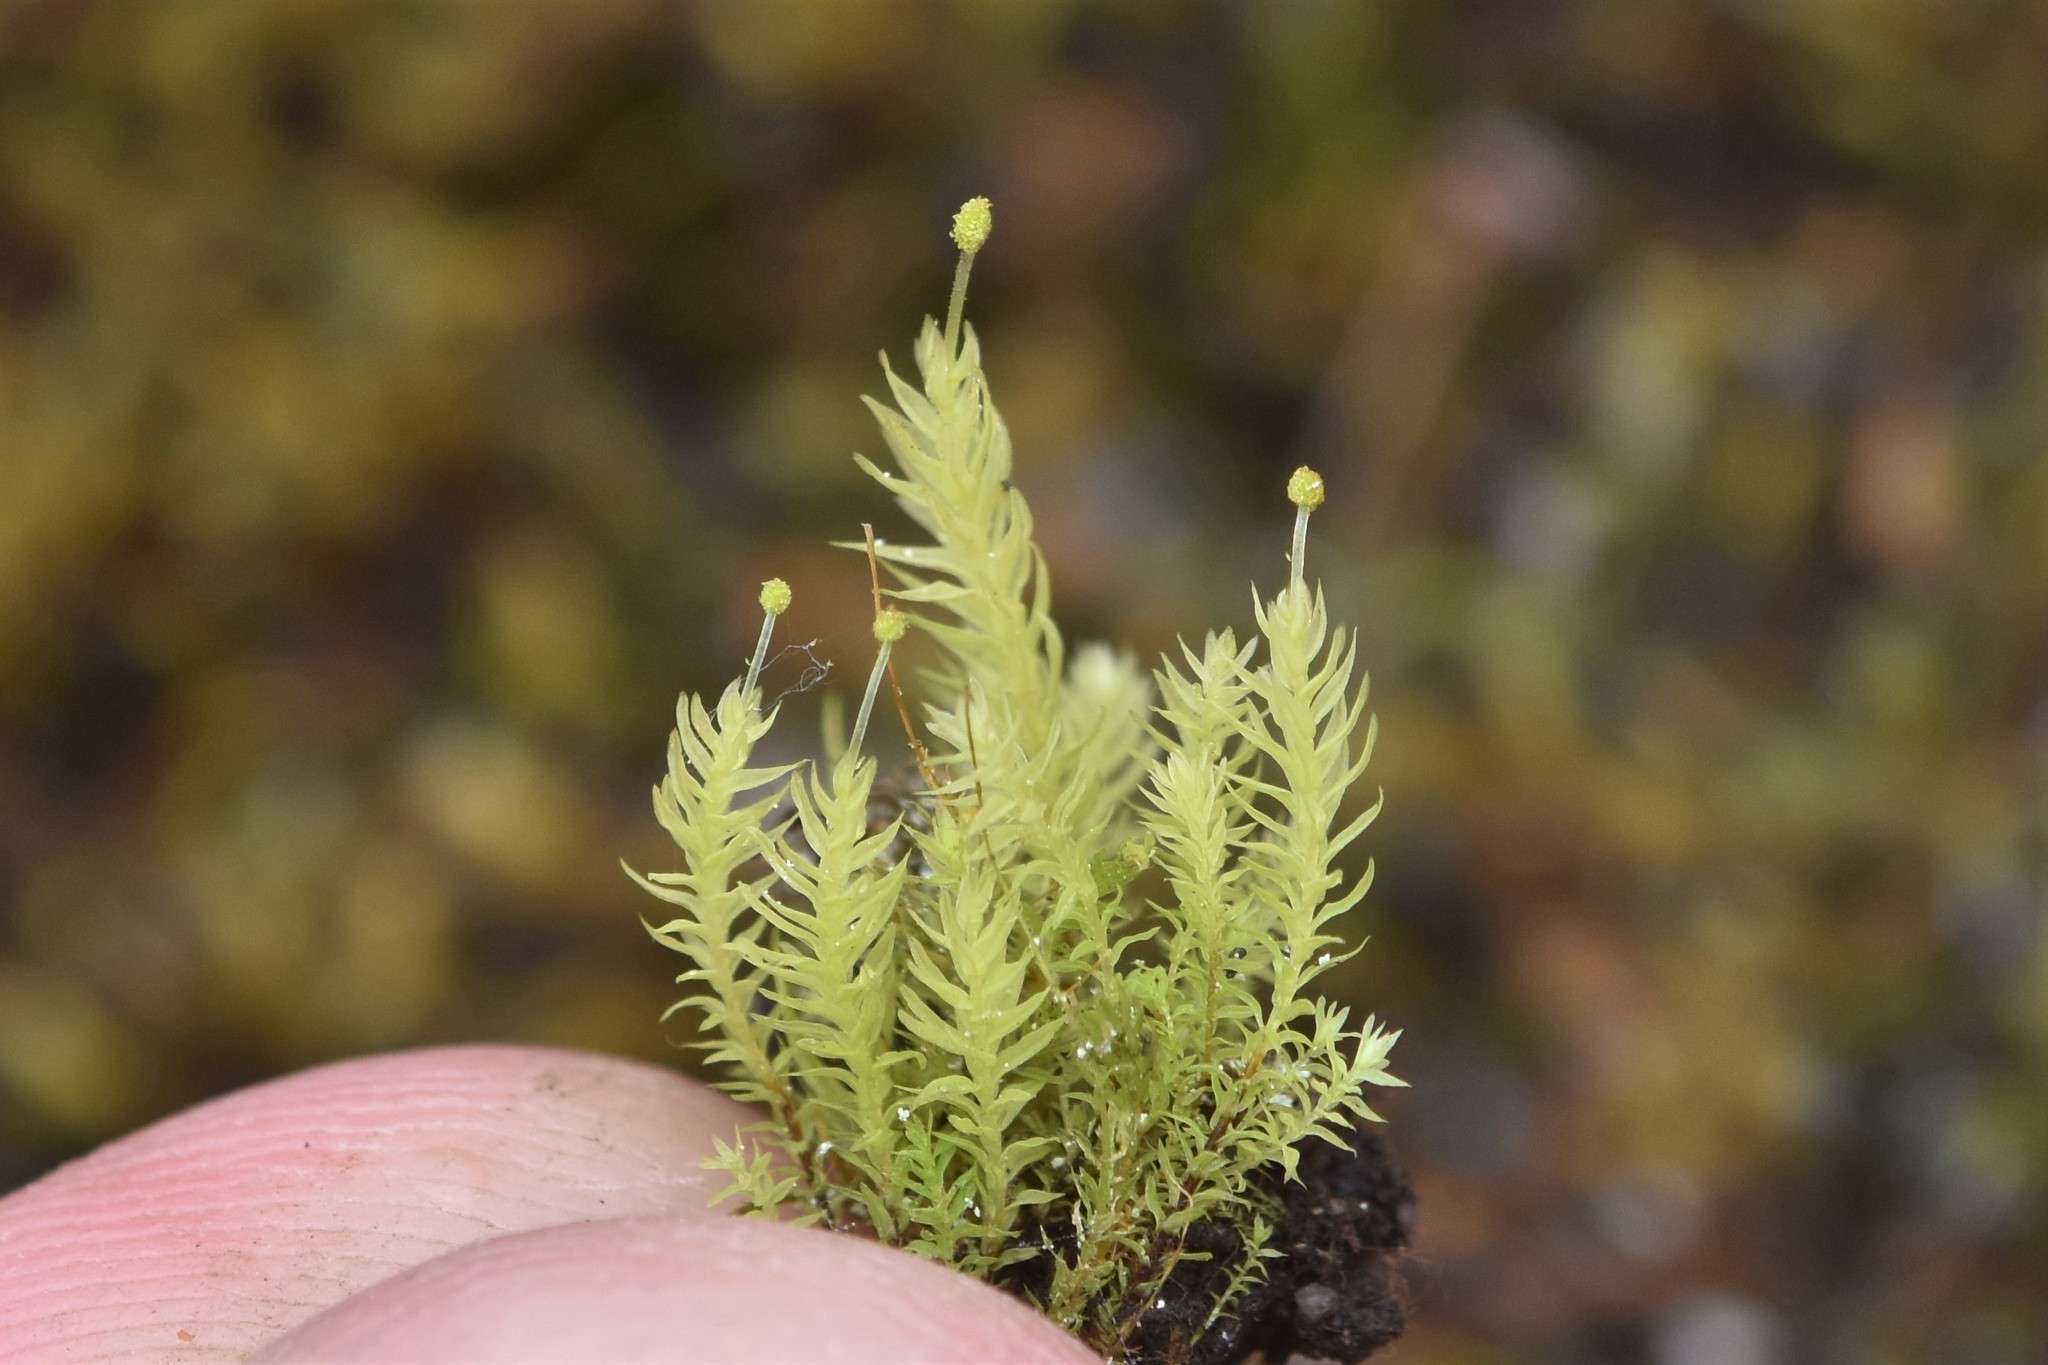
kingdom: Plantae
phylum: Bryophyta
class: Bryopsida
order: Aulacomniales
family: Aulacomniaceae
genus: Aulacomnium
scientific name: Aulacomnium androgynum
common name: Little groove moss
